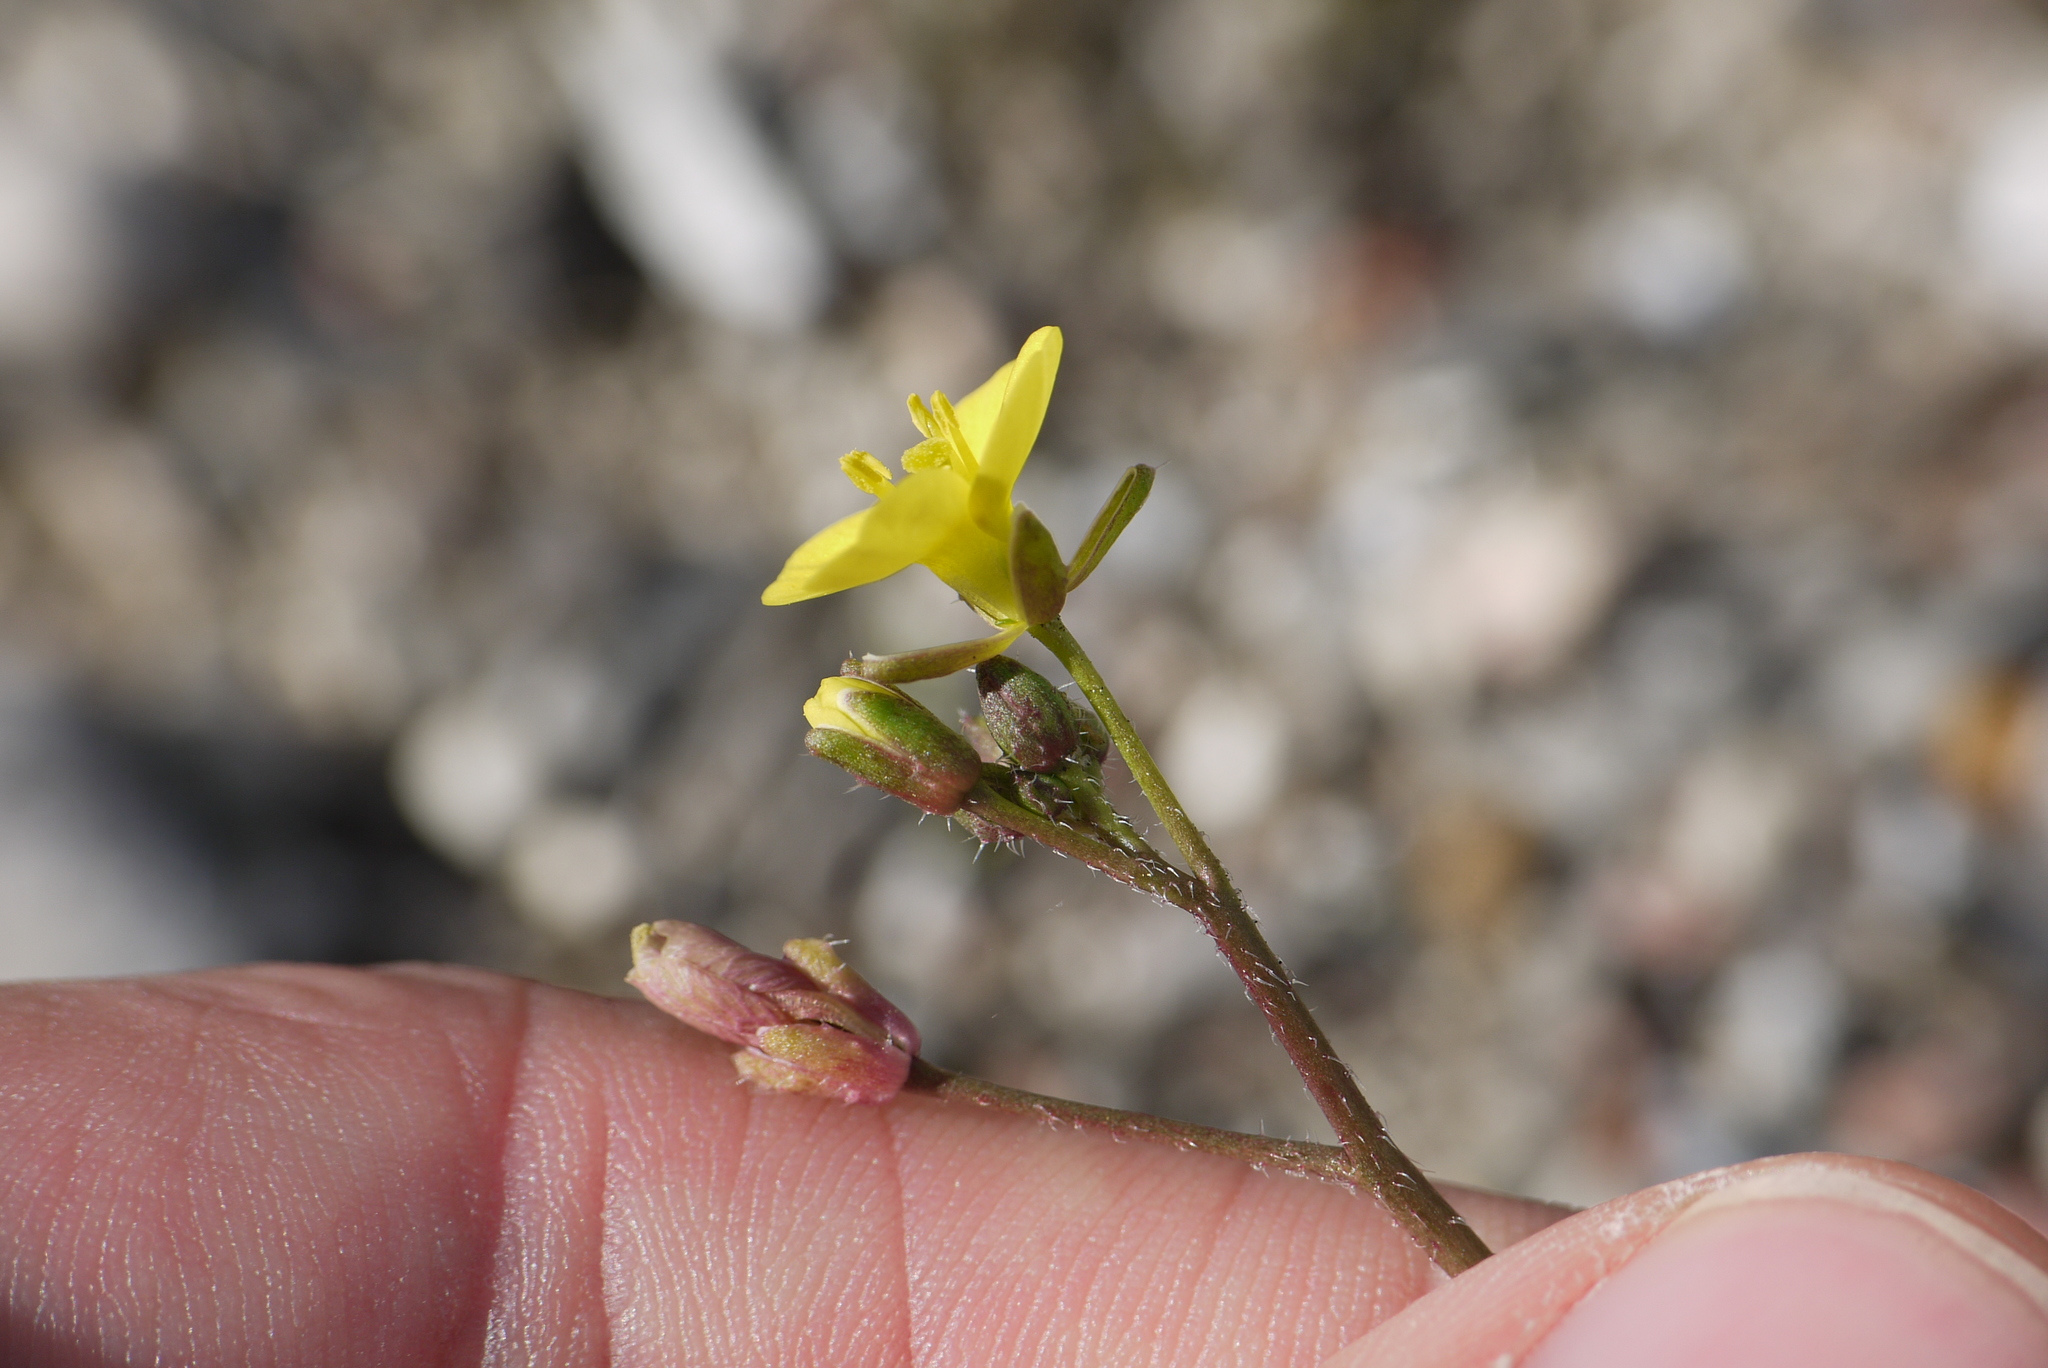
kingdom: Plantae
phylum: Tracheophyta
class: Magnoliopsida
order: Brassicales
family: Brassicaceae
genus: Diplotaxis
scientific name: Diplotaxis muralis
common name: Annual wall-rocket
